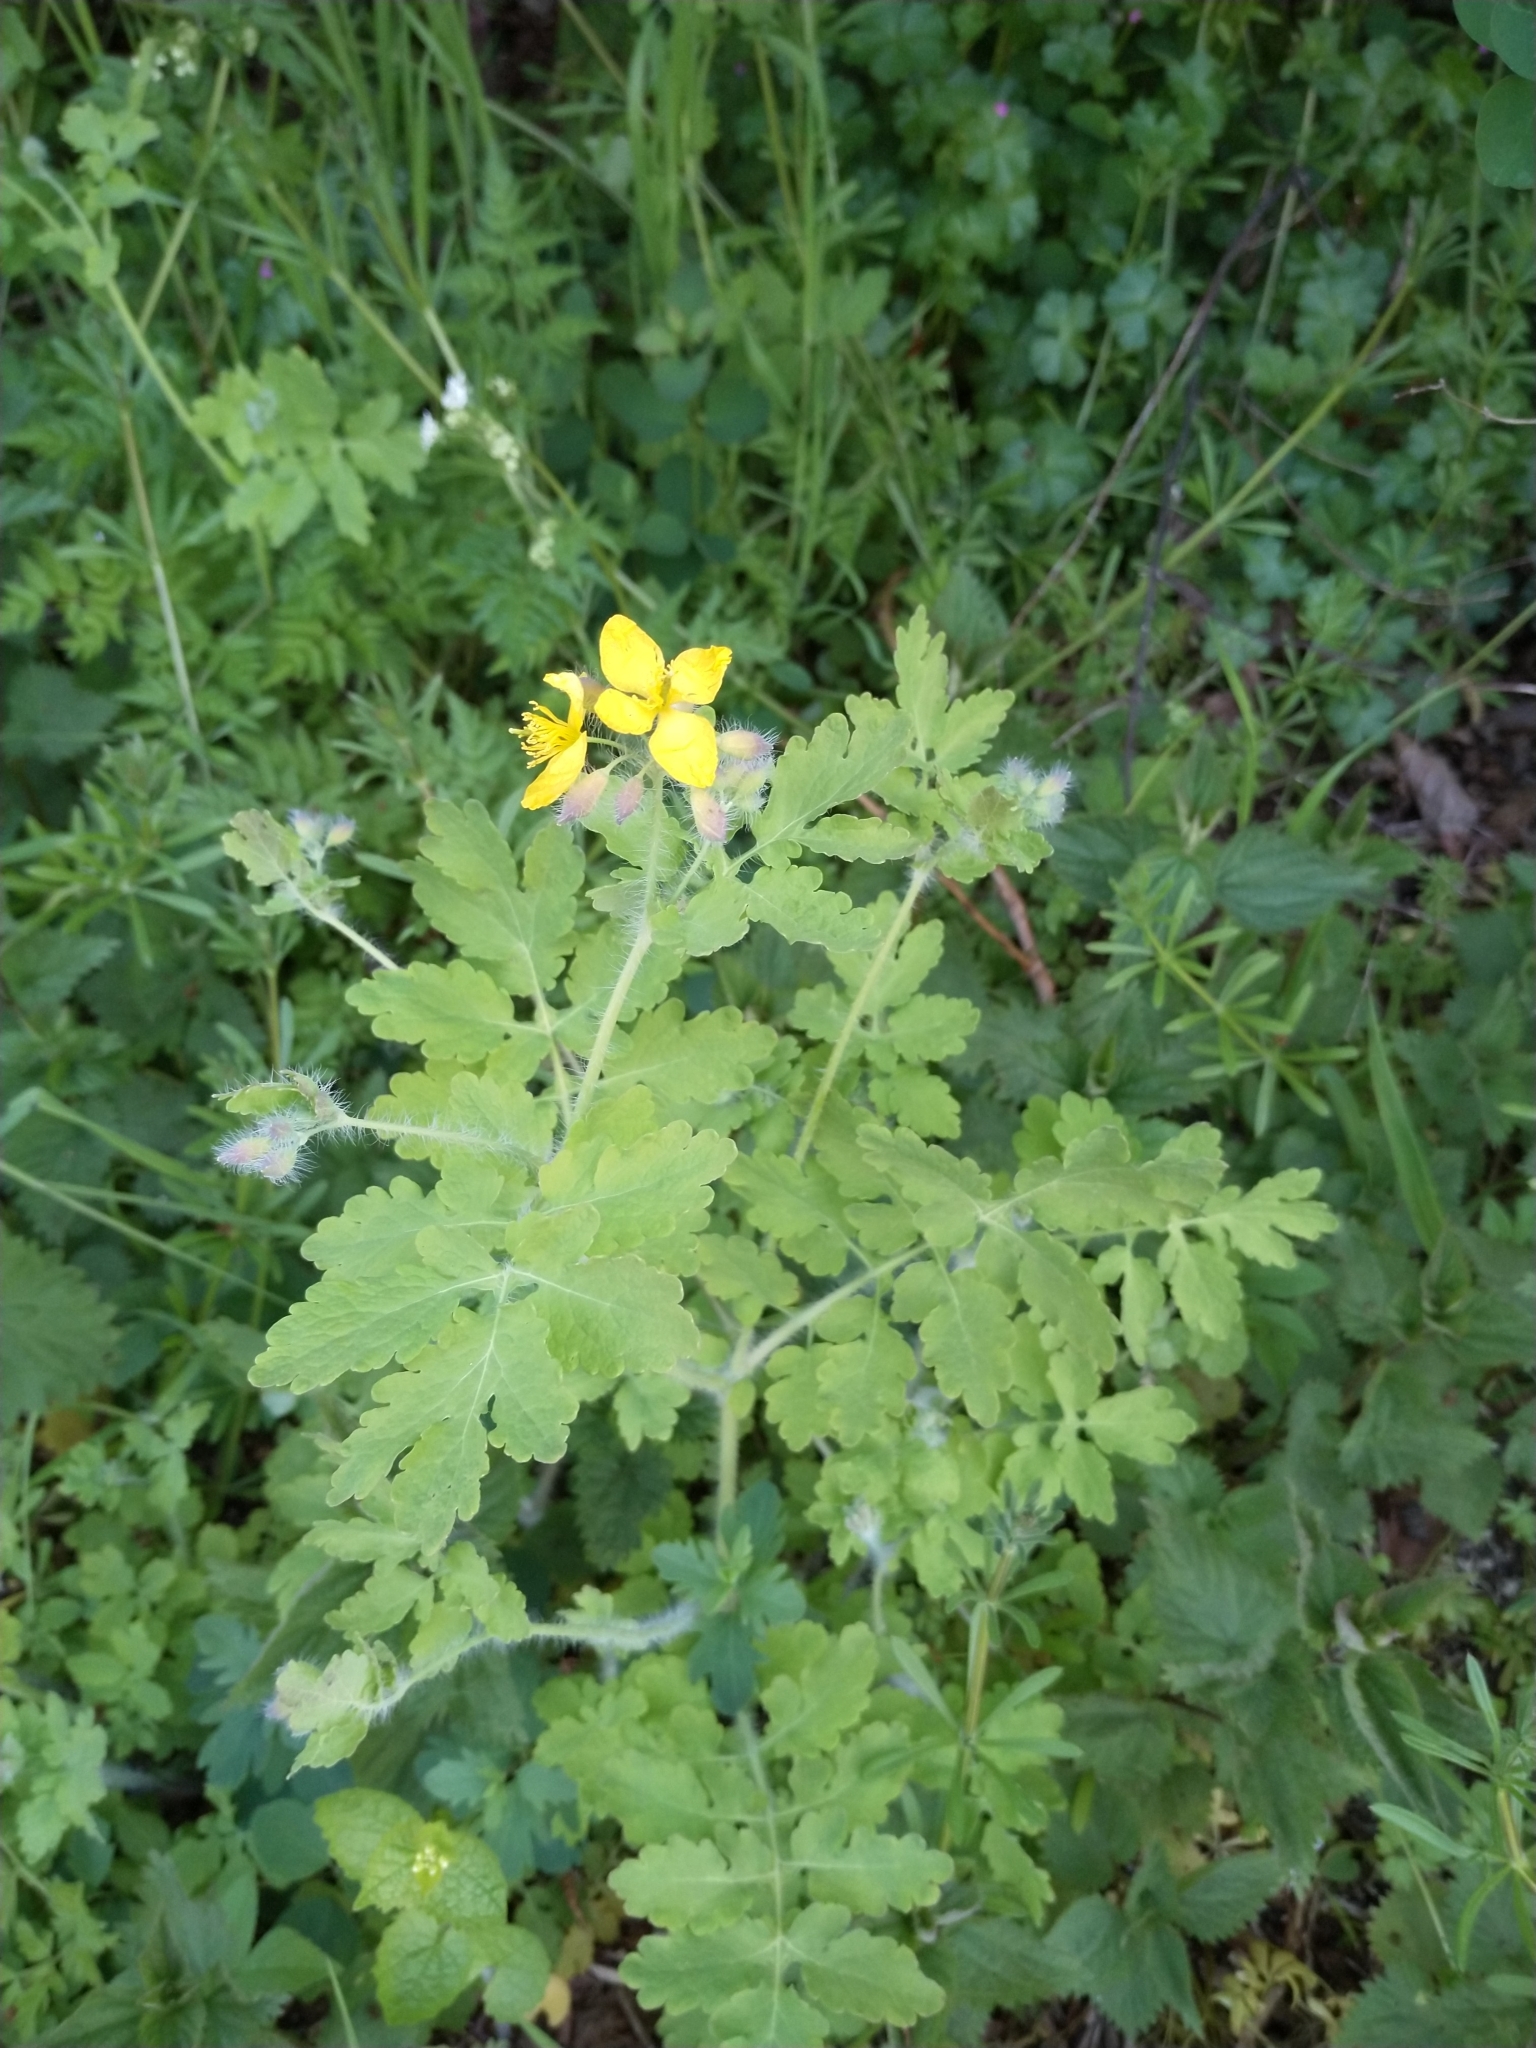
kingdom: Plantae
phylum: Tracheophyta
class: Magnoliopsida
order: Ranunculales
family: Papaveraceae
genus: Chelidonium
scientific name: Chelidonium majus
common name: Greater celandine
